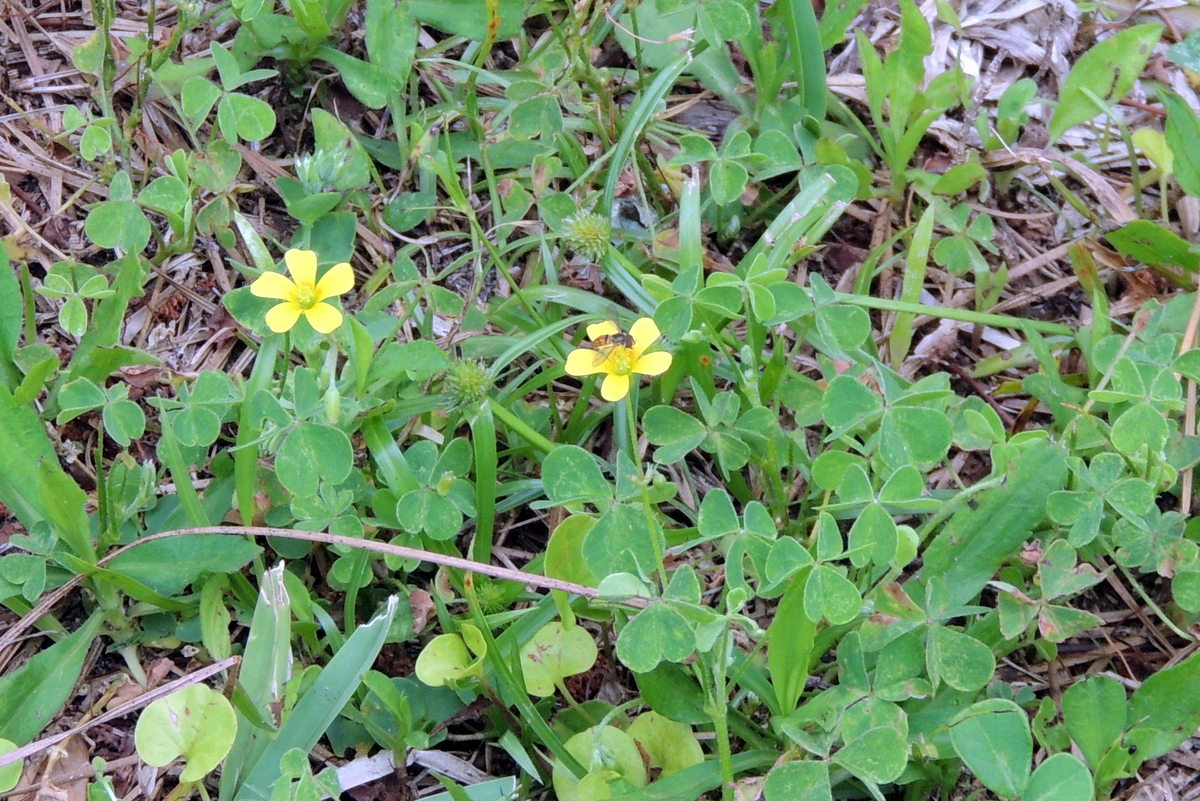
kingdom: Animalia
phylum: Arthropoda
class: Insecta
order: Diptera
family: Syrphidae
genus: Toxomerus
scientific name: Toxomerus boscii
